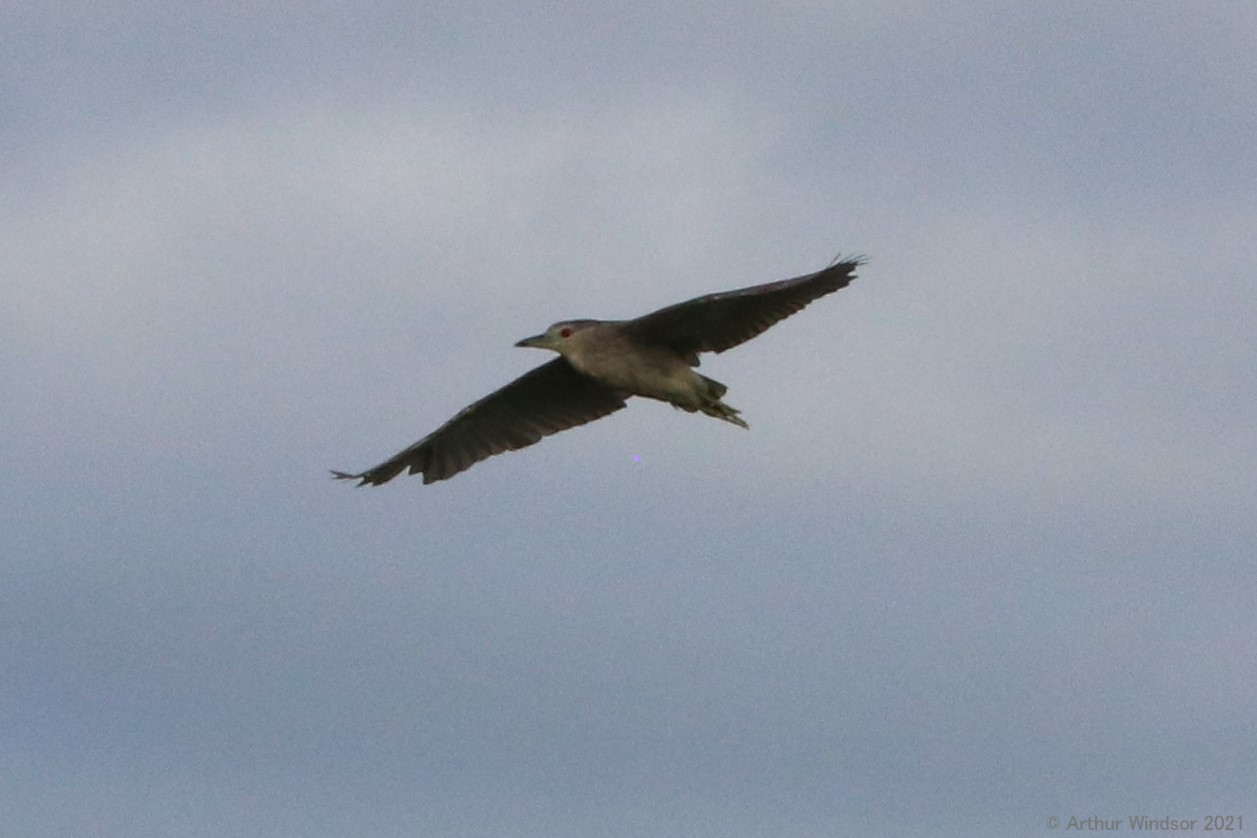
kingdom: Animalia
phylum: Chordata
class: Aves
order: Pelecaniformes
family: Ardeidae
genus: Nycticorax
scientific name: Nycticorax nycticorax
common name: Black-crowned night heron
